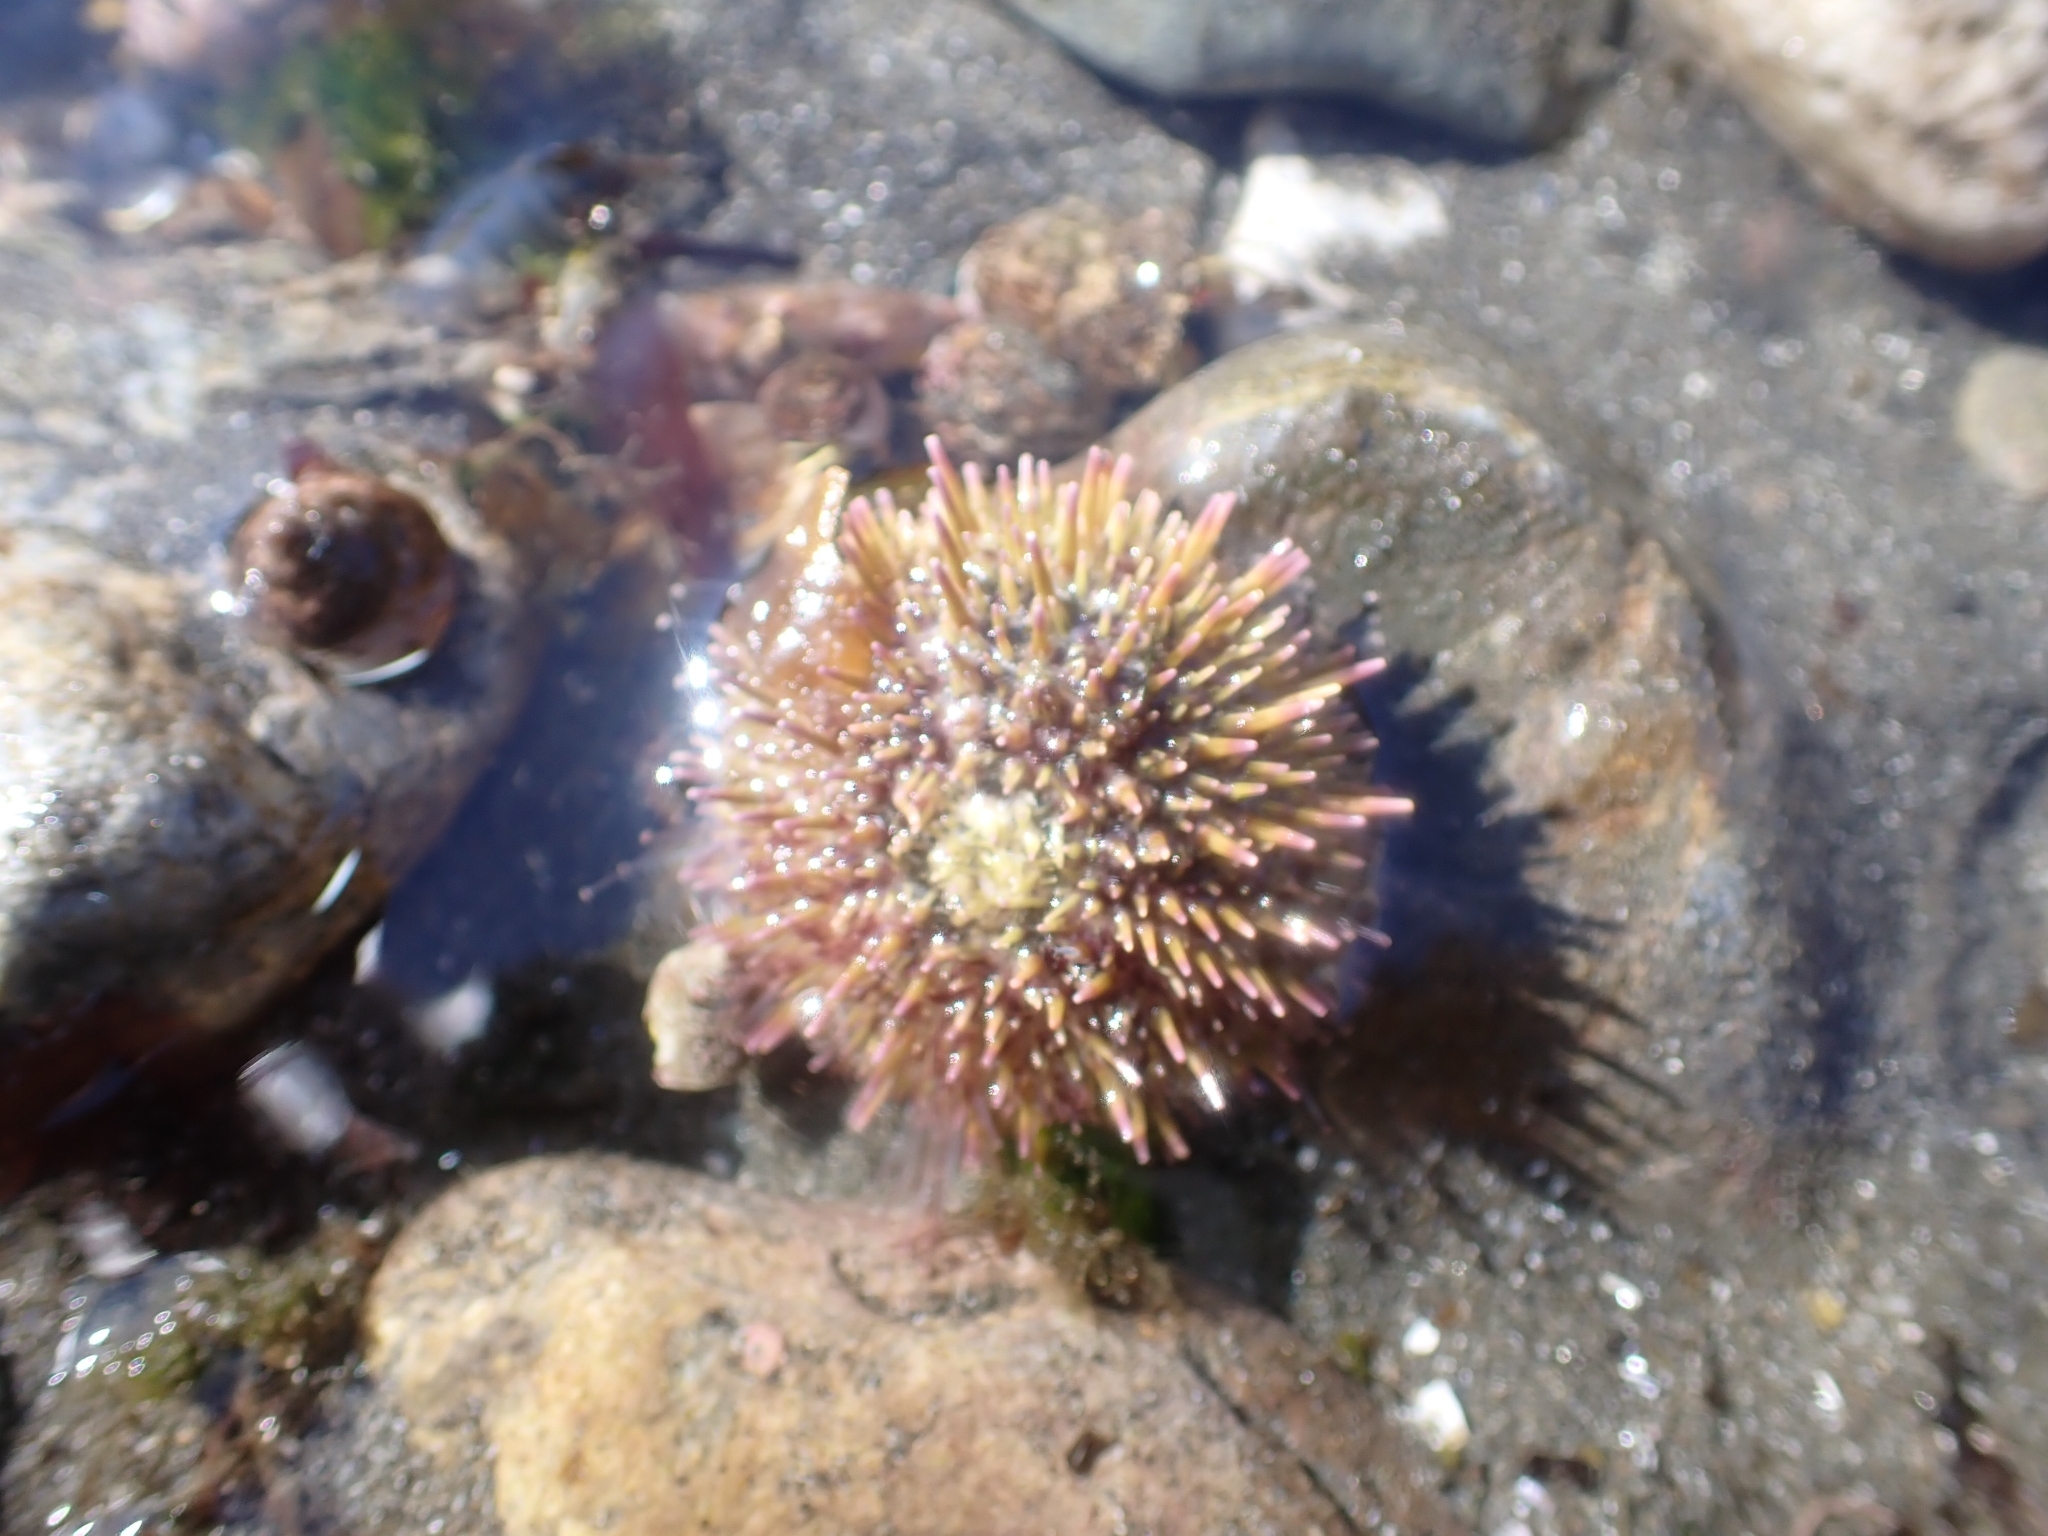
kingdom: Animalia
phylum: Echinodermata
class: Echinoidea
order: Camarodonta
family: Strongylocentrotidae
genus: Strongylocentrotus
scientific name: Strongylocentrotus droebachiensis
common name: Northern sea urchin
